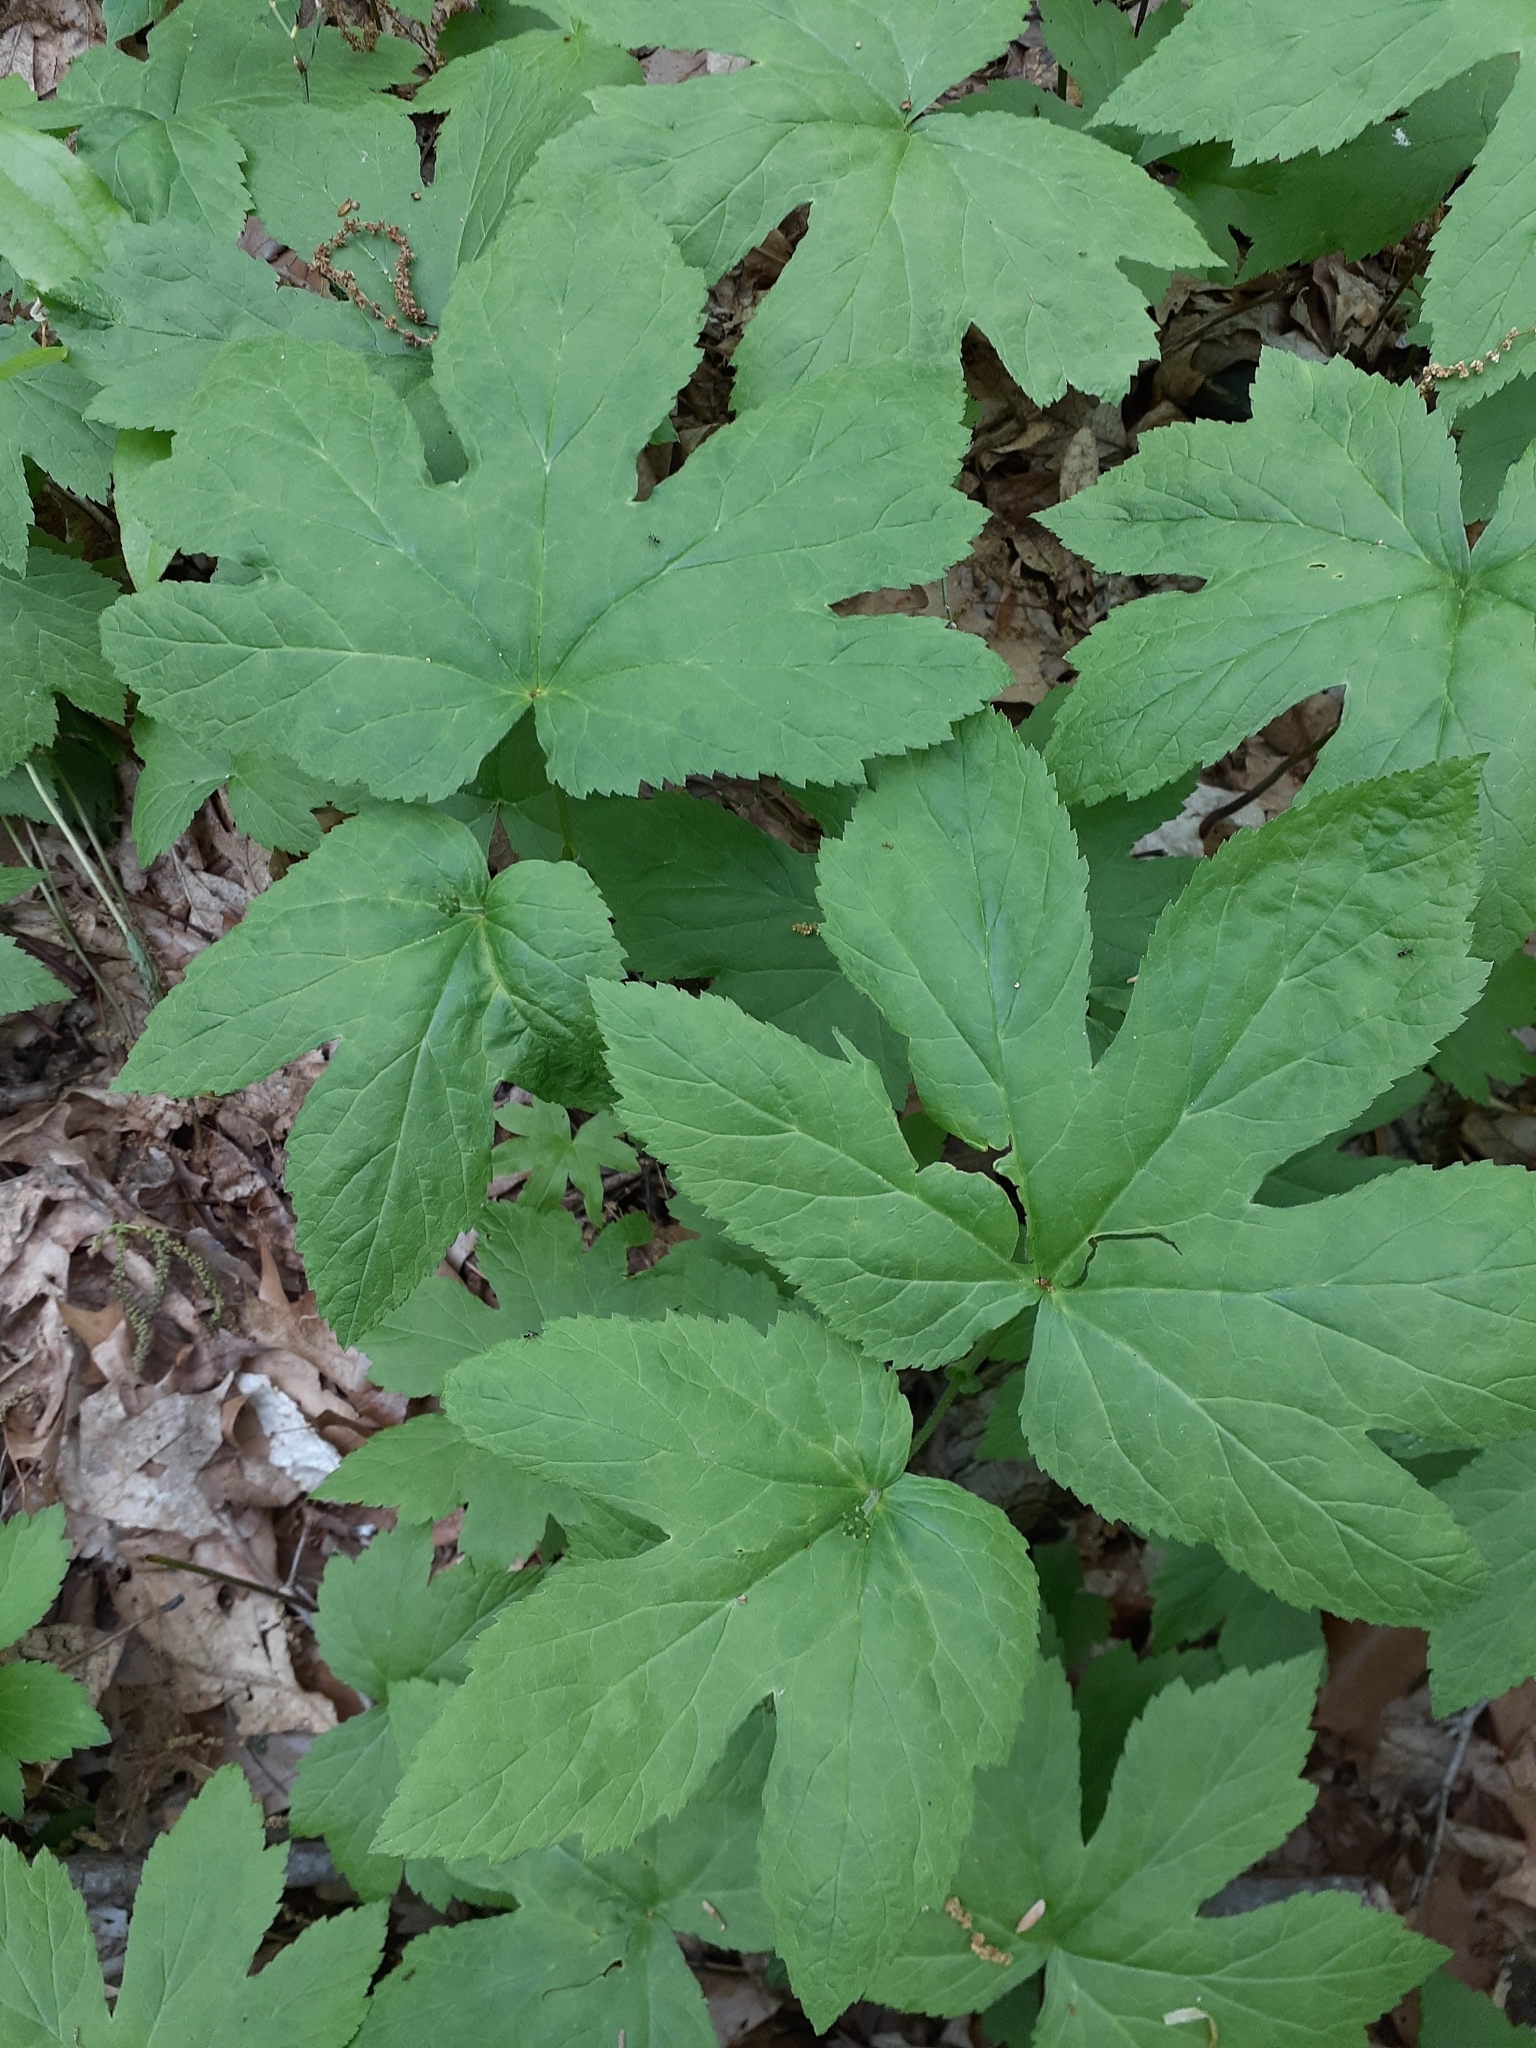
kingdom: Plantae
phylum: Tracheophyta
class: Magnoliopsida
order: Ranunculales
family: Ranunculaceae
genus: Hydrastis
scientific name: Hydrastis canadensis
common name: Goldenseal
